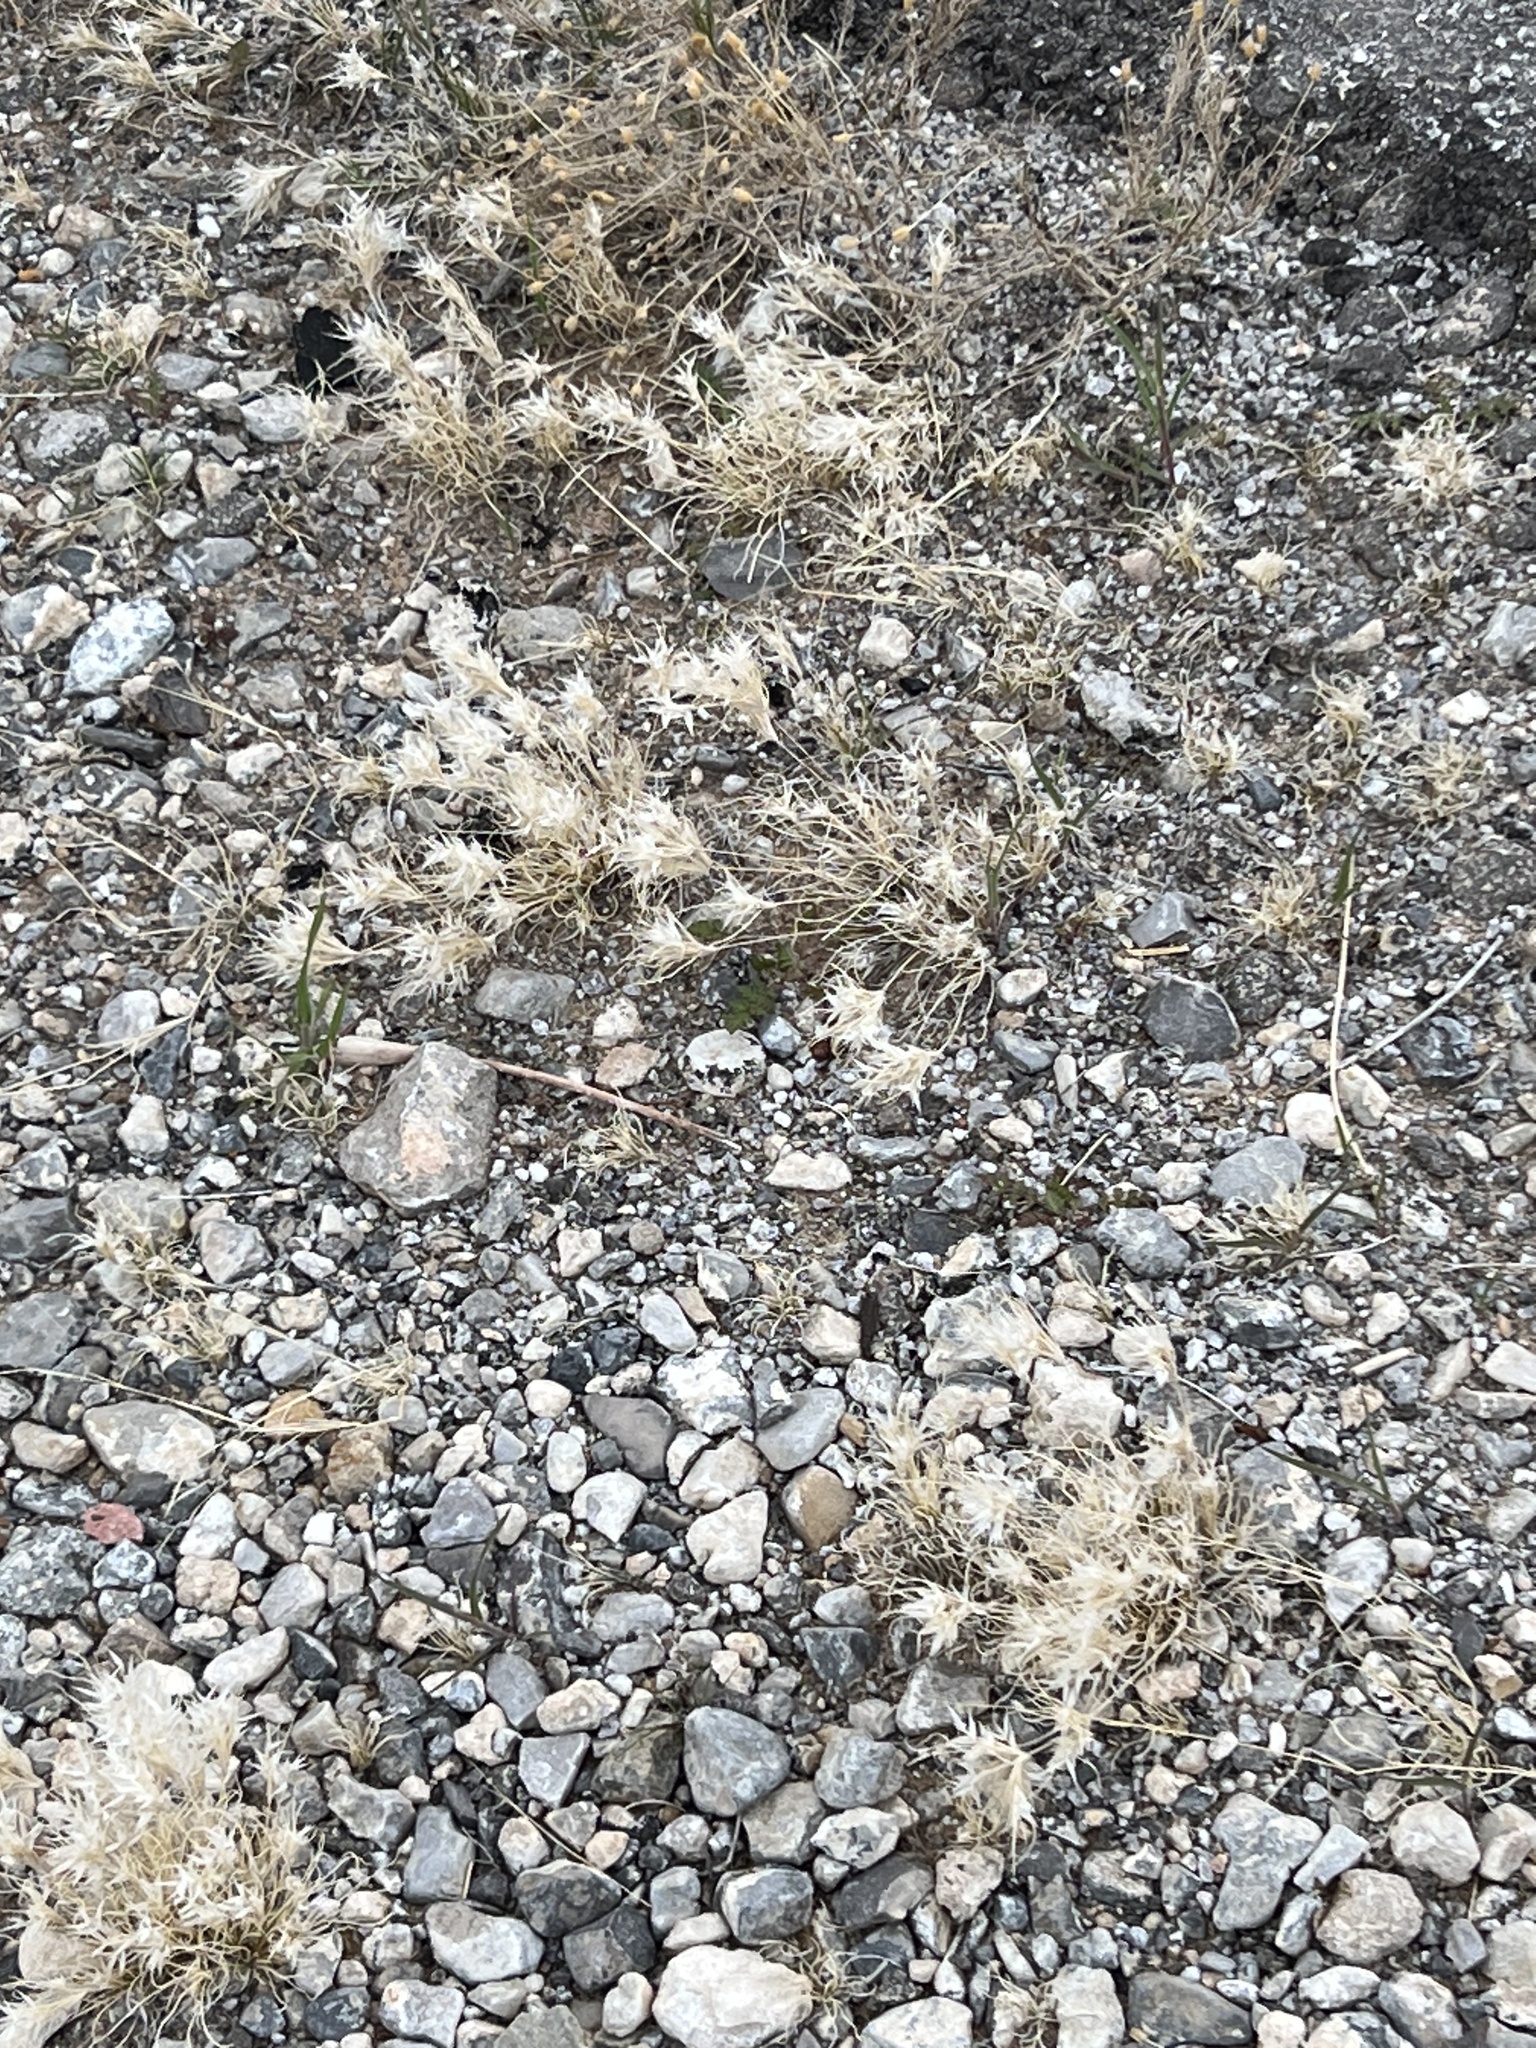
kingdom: Plantae
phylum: Tracheophyta
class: Liliopsida
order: Poales
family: Poaceae
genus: Dasyochloa
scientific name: Dasyochloa pulchella
